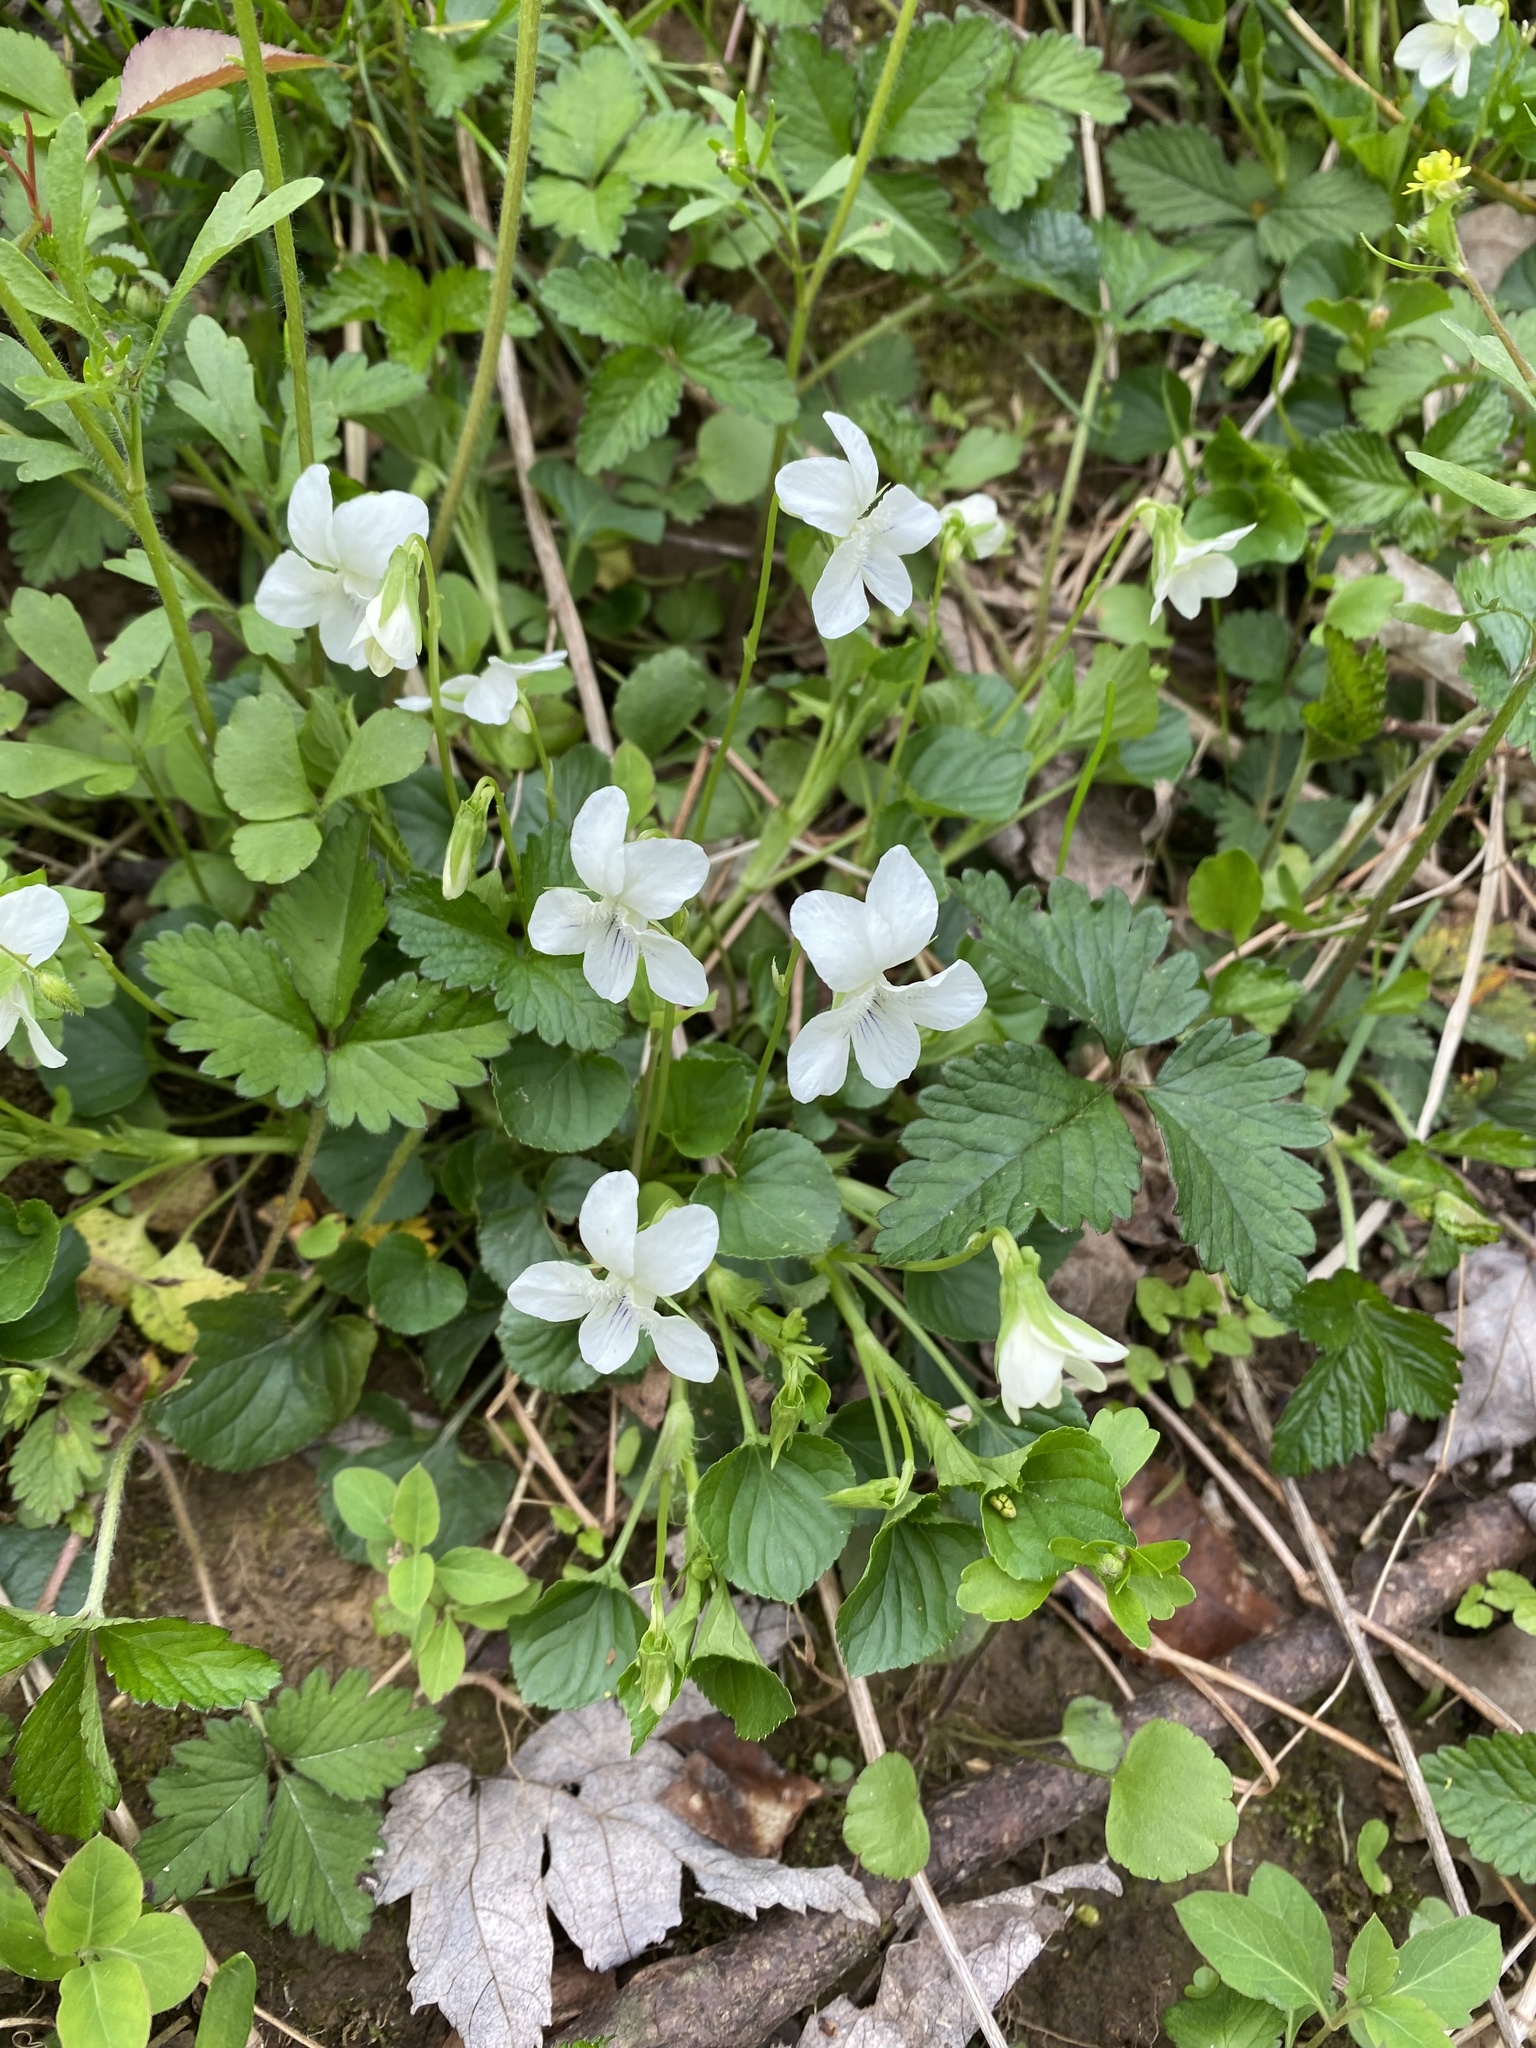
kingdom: Plantae
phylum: Tracheophyta
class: Magnoliopsida
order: Malpighiales
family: Violaceae
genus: Viola
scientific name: Viola striata
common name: Cream violet
